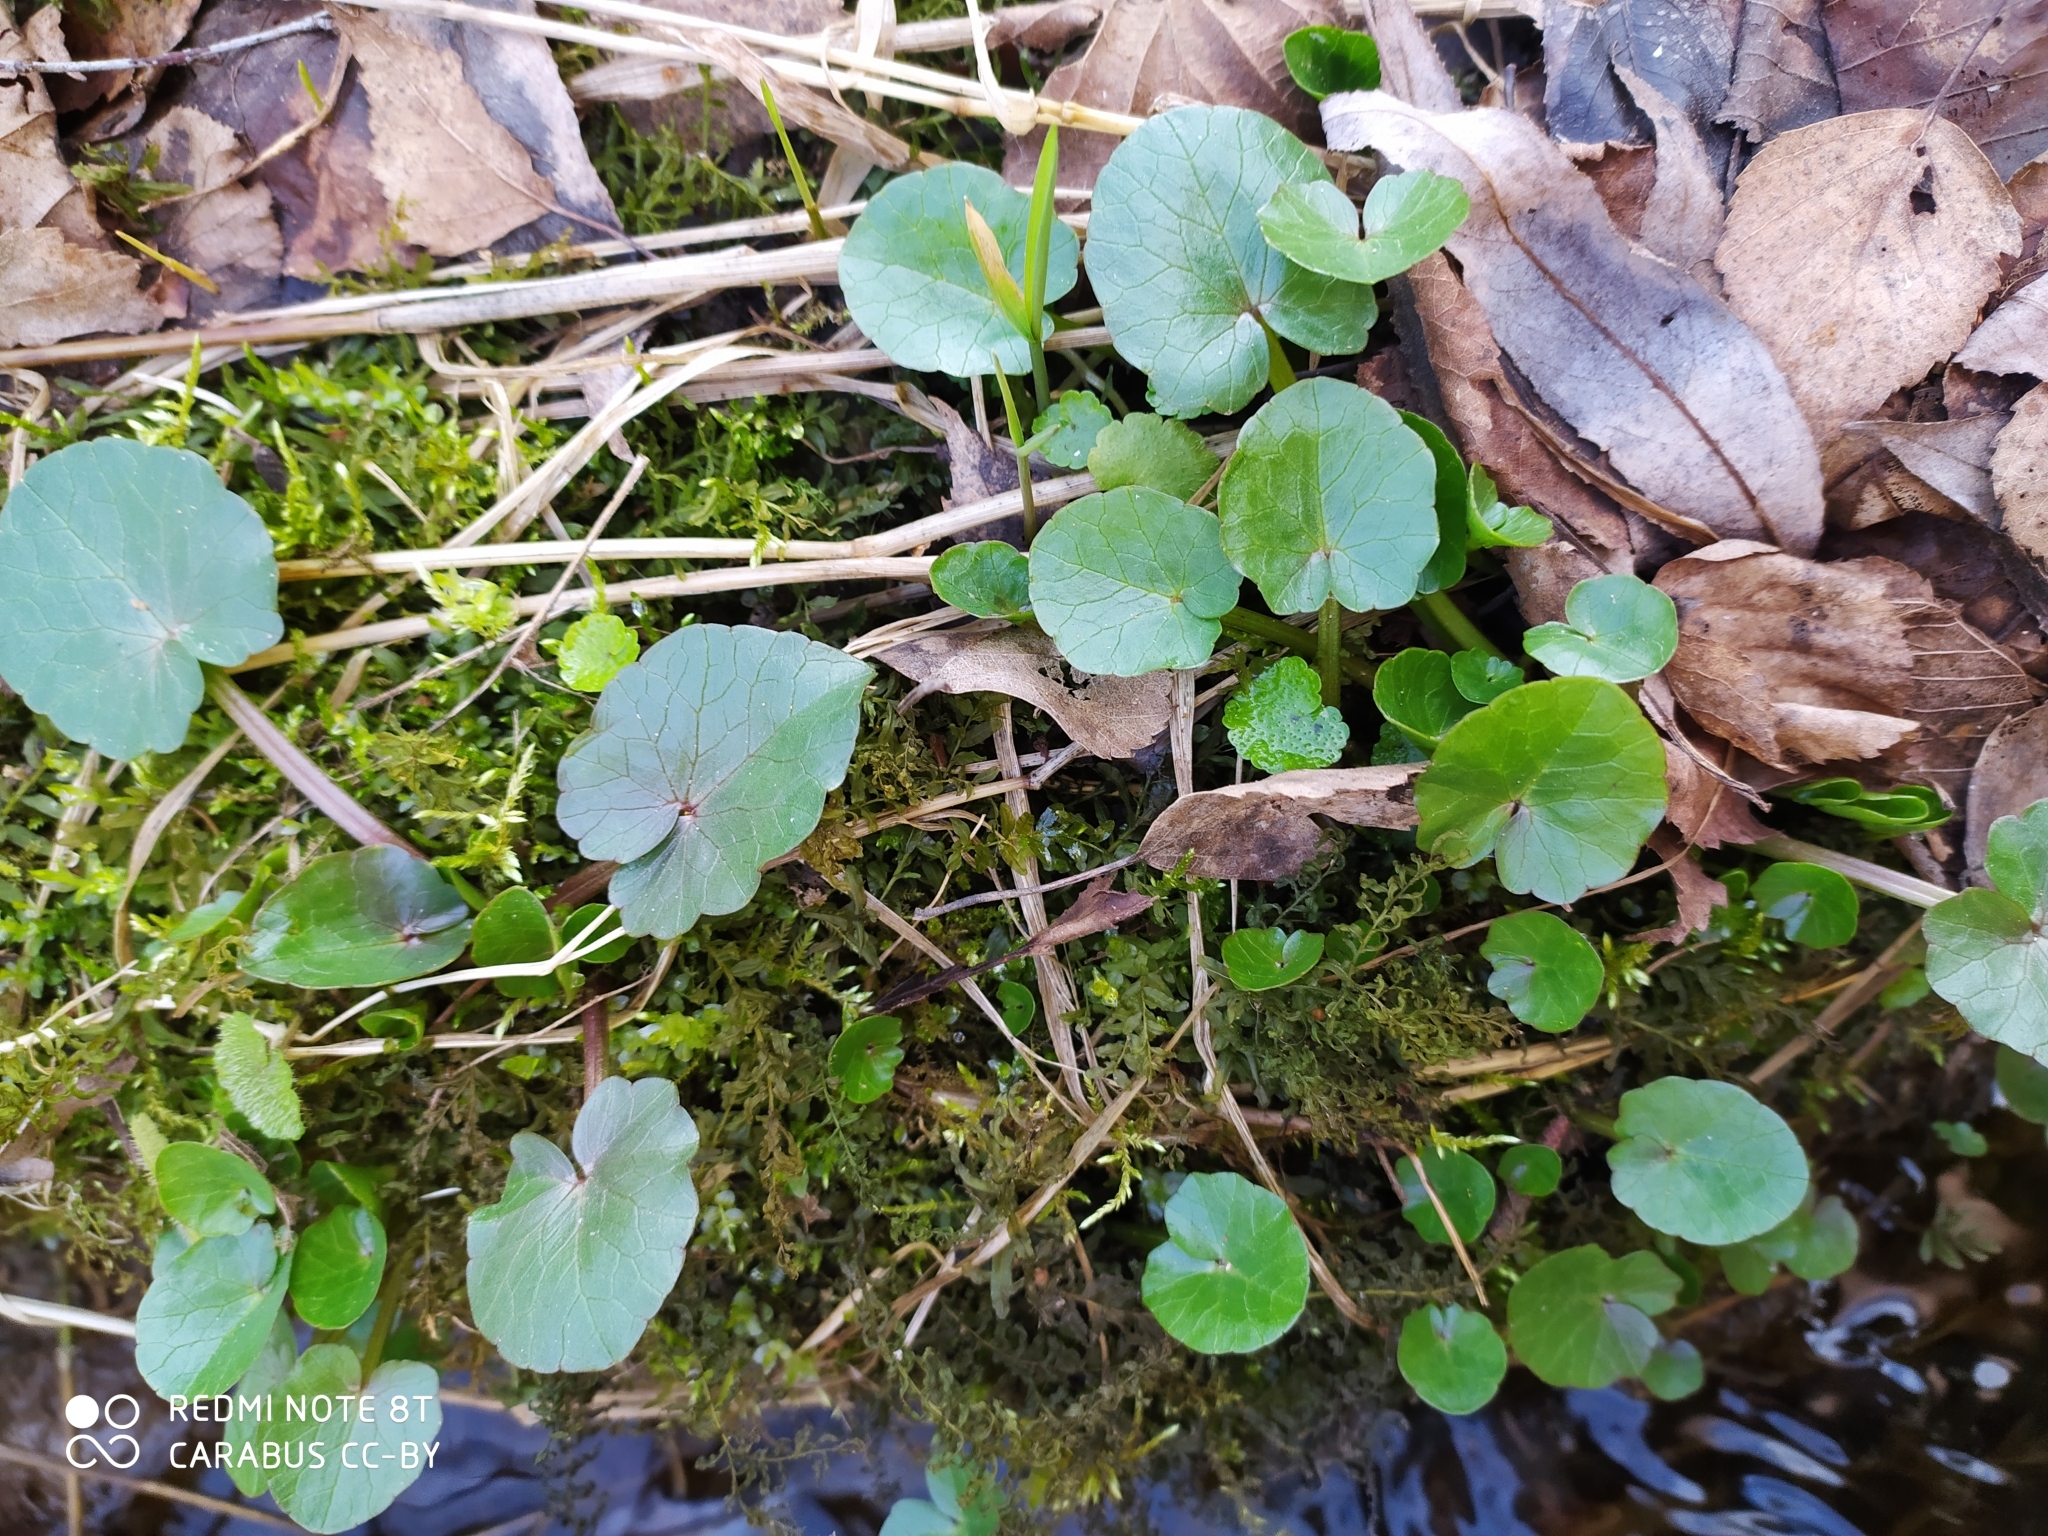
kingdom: Plantae
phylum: Tracheophyta
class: Magnoliopsida
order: Ranunculales
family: Ranunculaceae
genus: Ficaria
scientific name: Ficaria verna
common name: Lesser celandine
